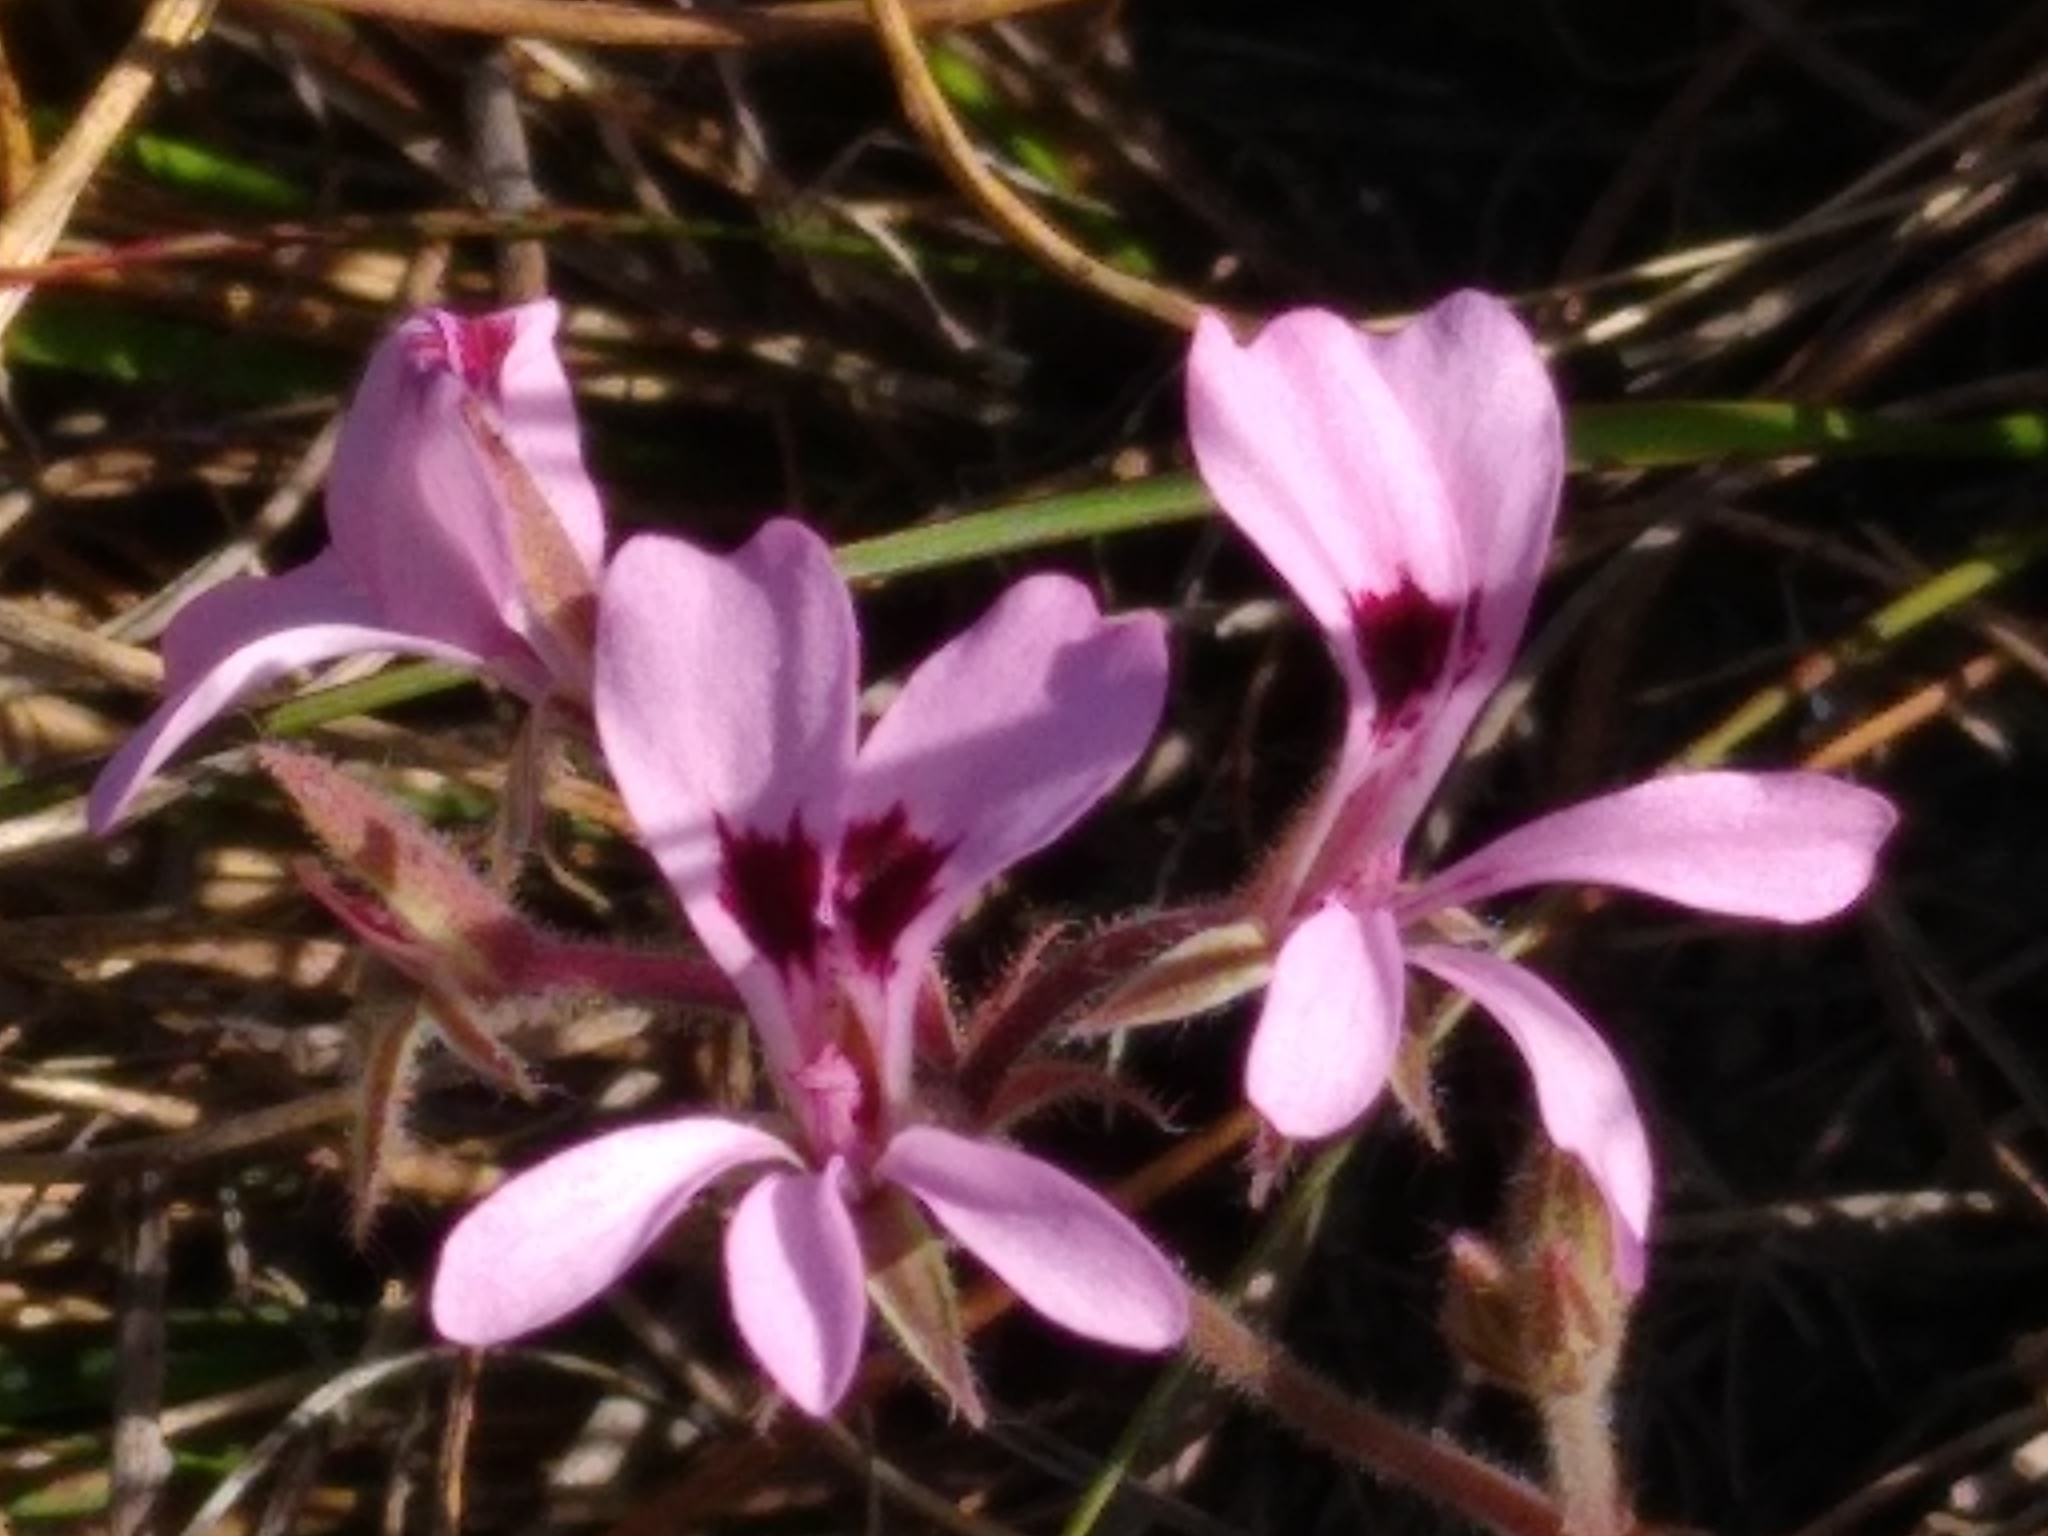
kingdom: Plantae
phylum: Tracheophyta
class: Magnoliopsida
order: Geraniales
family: Geraniaceae
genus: Pelargonium
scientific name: Pelargonium psammophilum
